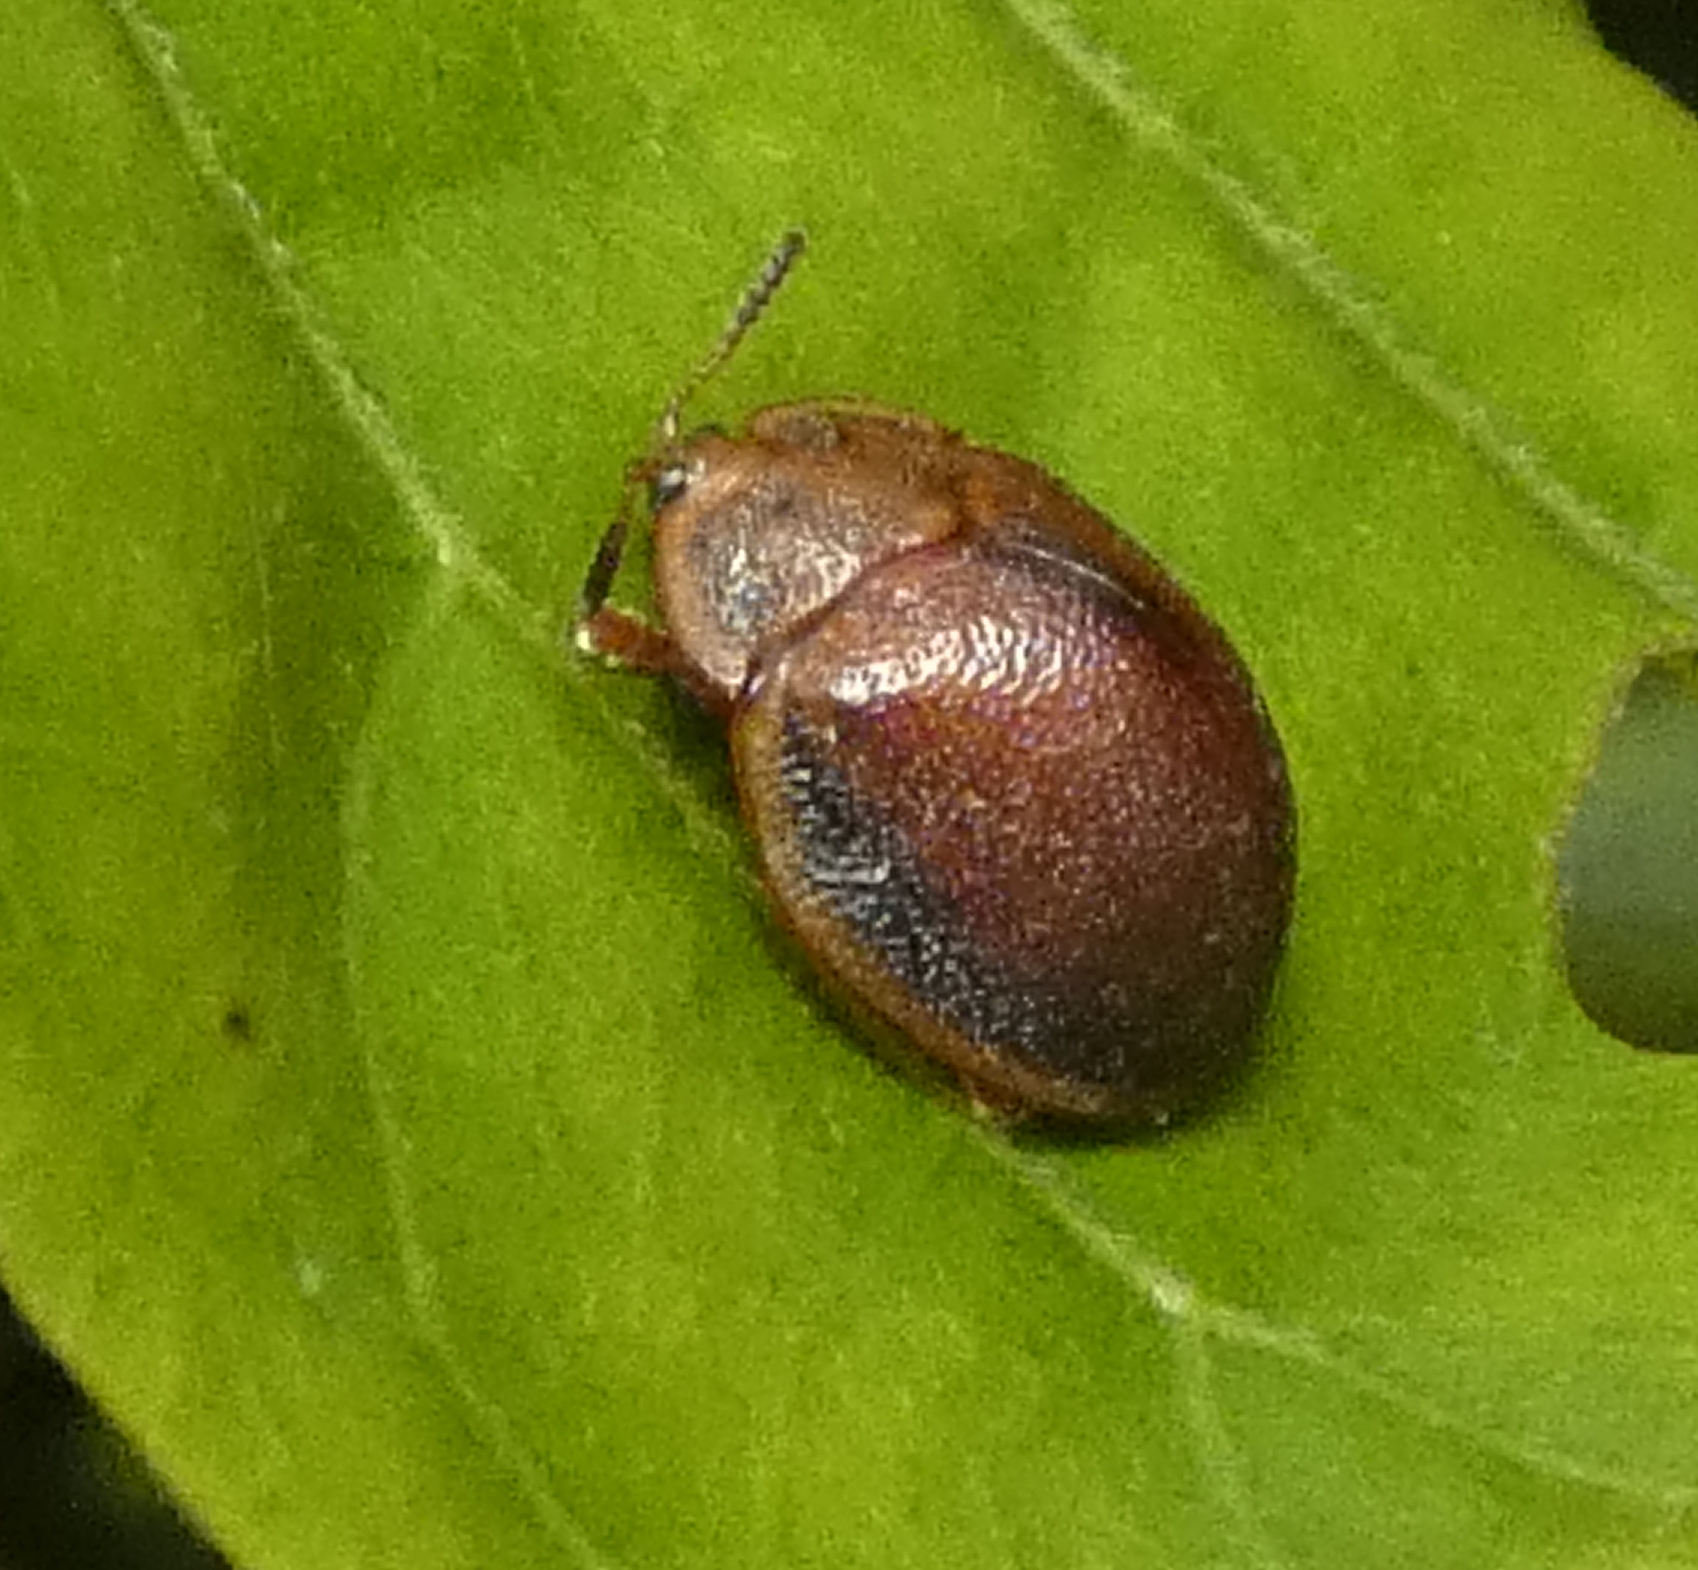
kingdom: Animalia
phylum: Arthropoda
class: Insecta
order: Coleoptera
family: Chrysomelidae
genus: Chelymorpha
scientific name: Chelymorpha marginata
